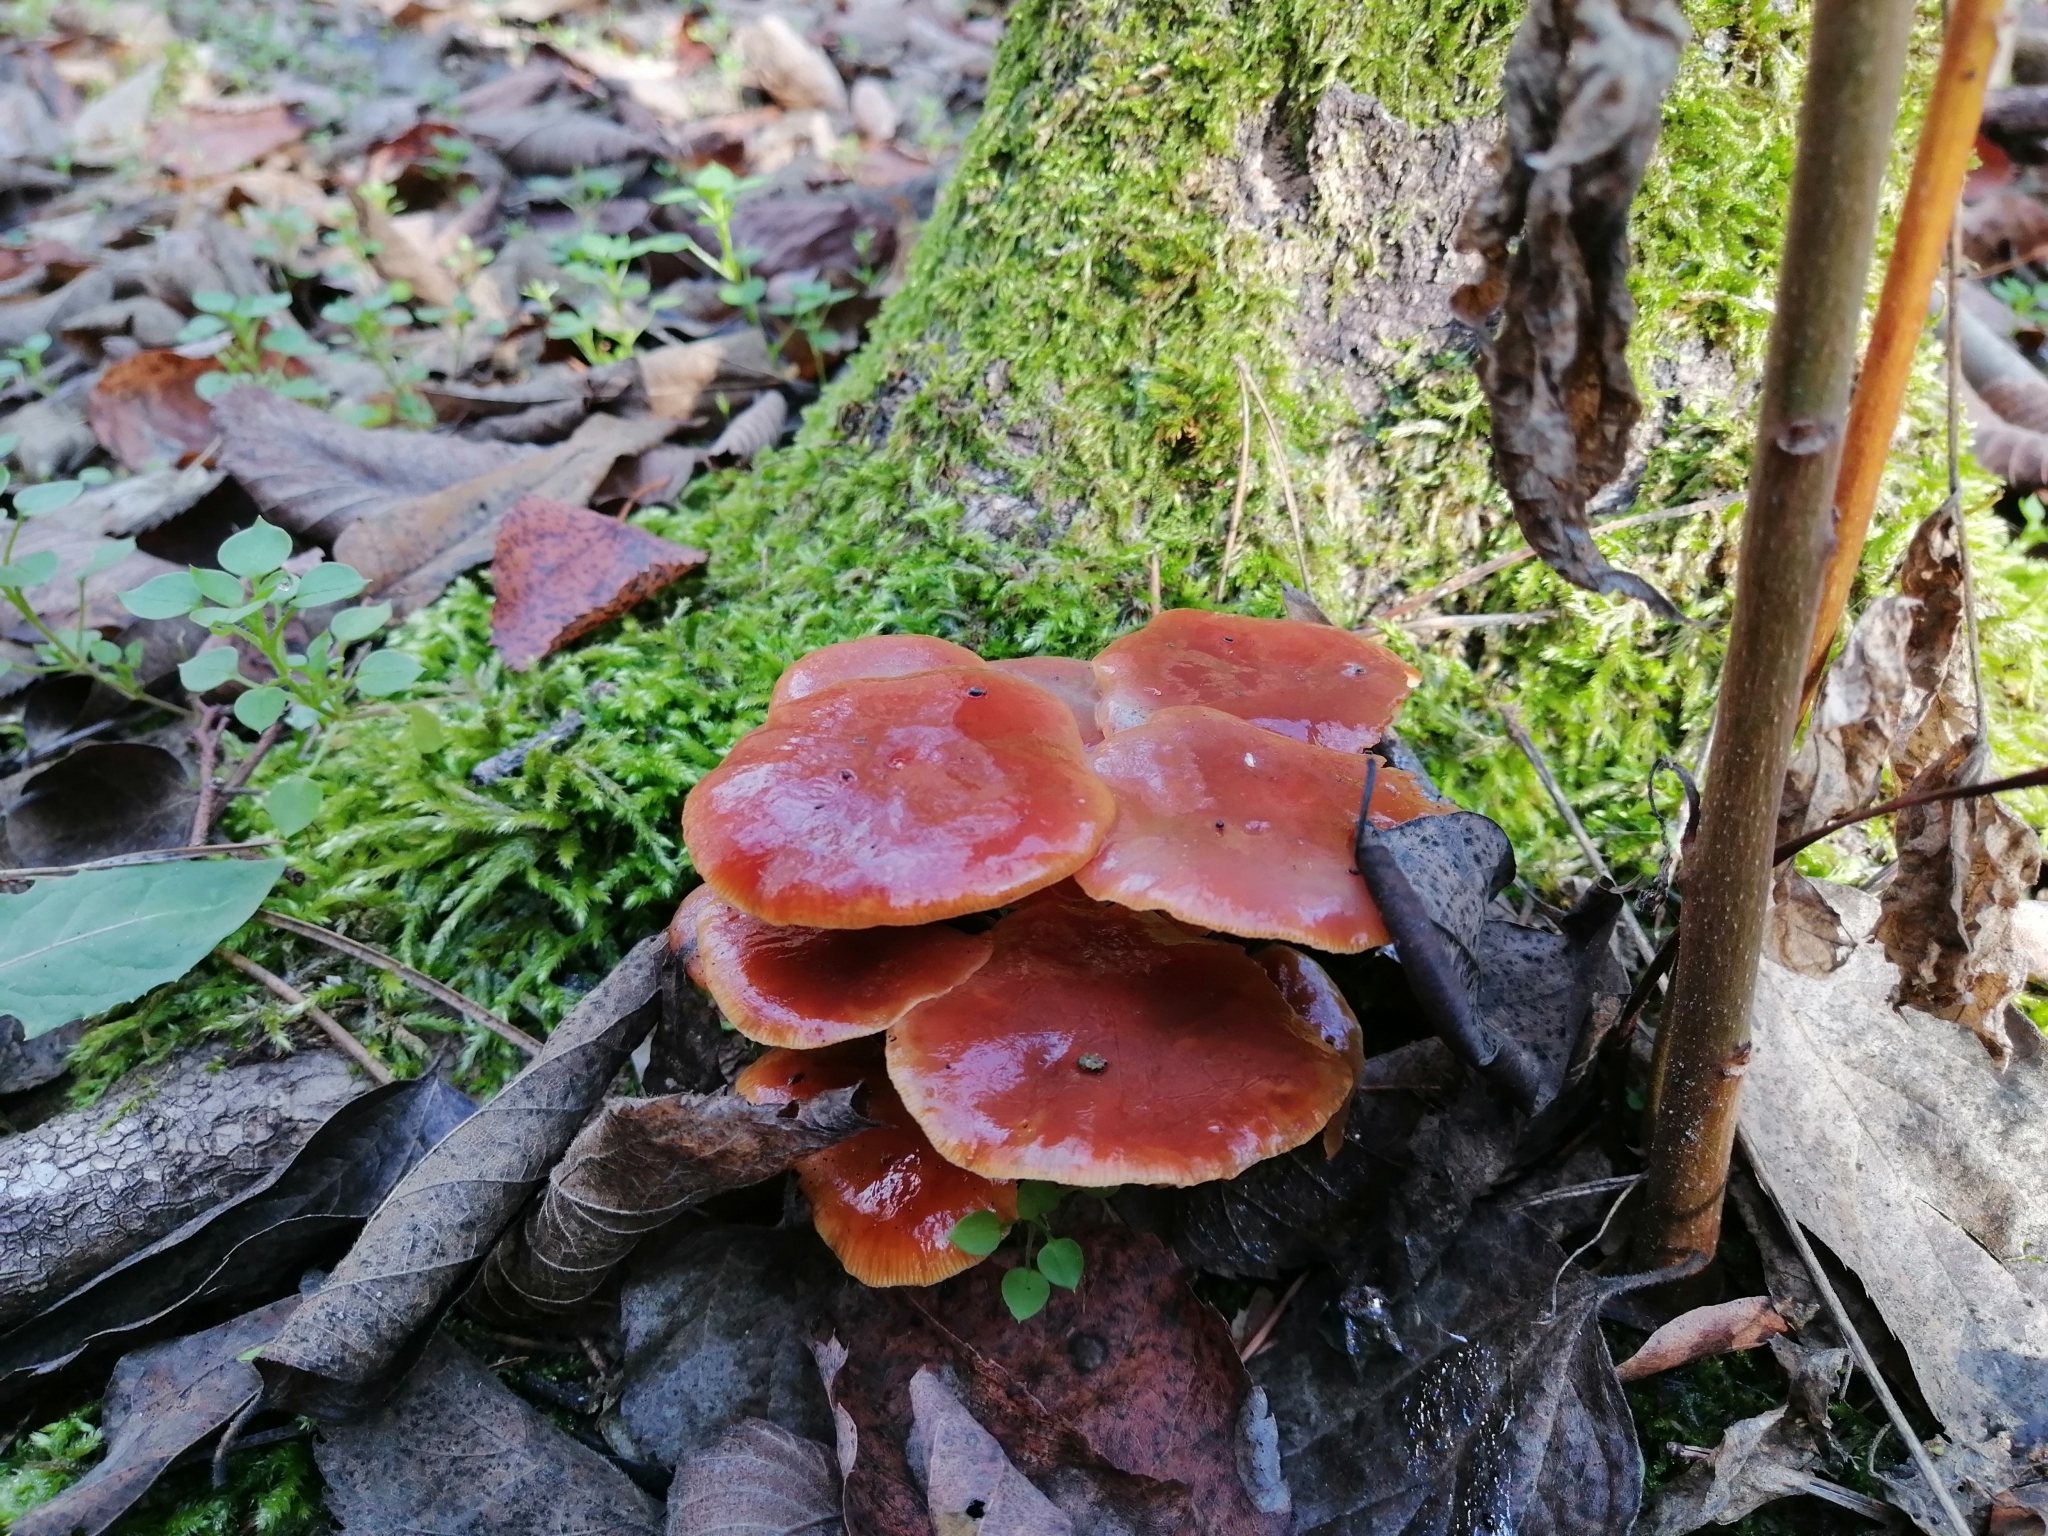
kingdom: Fungi
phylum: Basidiomycota
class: Agaricomycetes
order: Agaricales
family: Physalacriaceae
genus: Flammulina
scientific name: Flammulina
